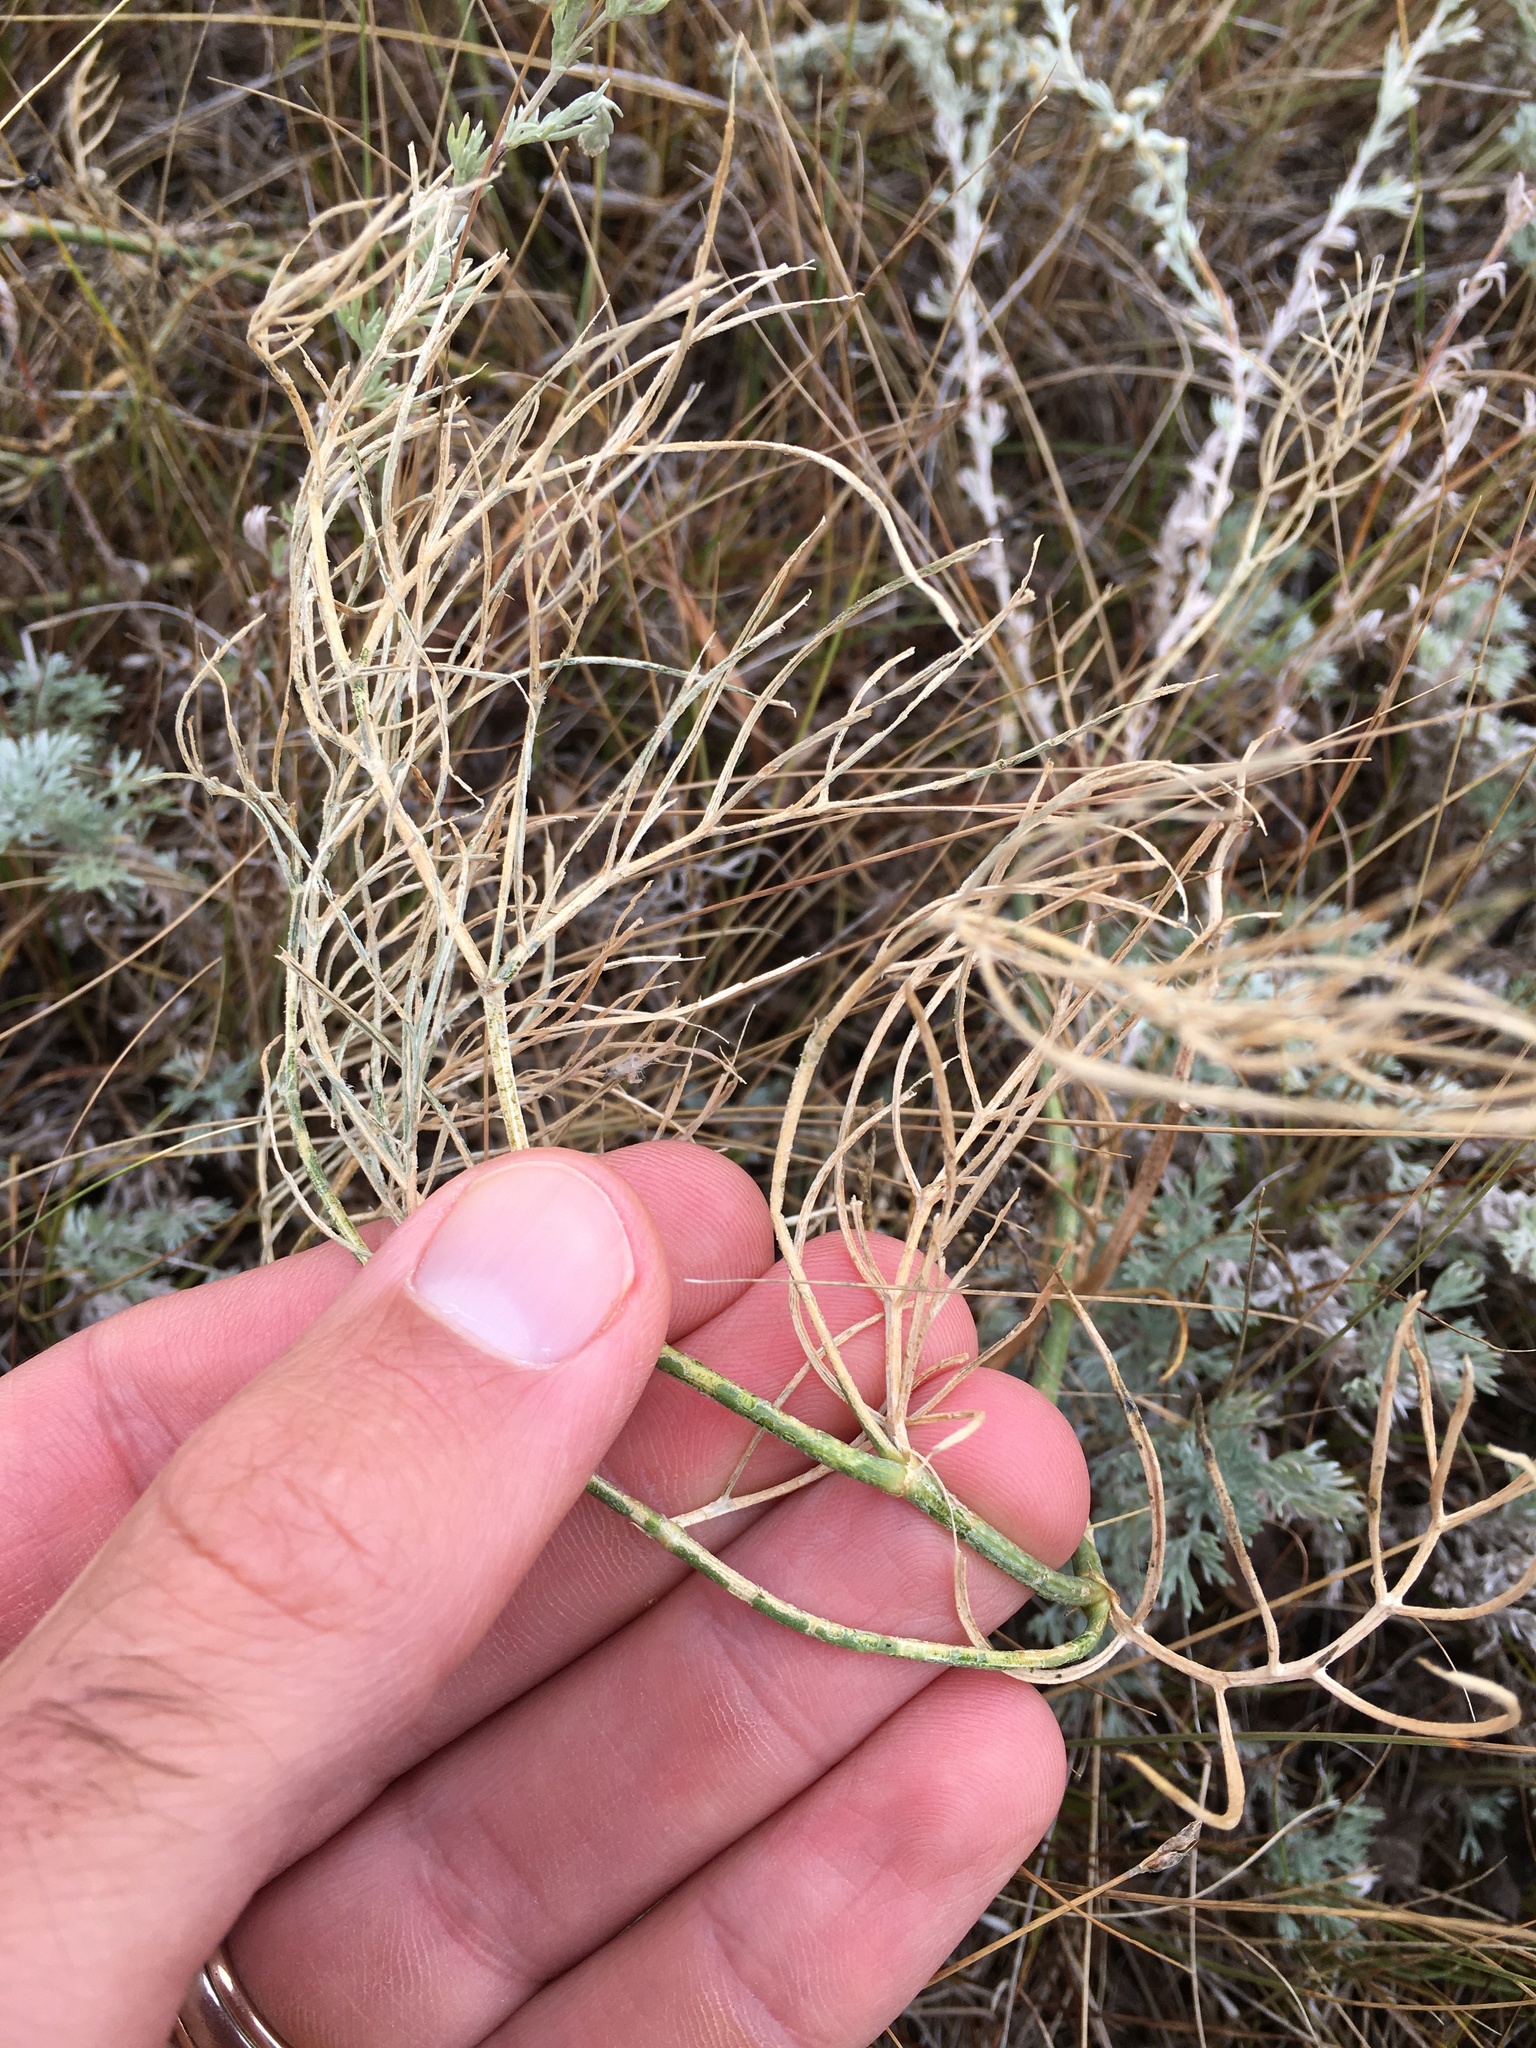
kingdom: Plantae
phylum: Tracheophyta
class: Magnoliopsida
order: Fabales
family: Fabaceae
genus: Astragalus
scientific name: Astragalus pectinatus
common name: Tine-leaf milk-vetch
